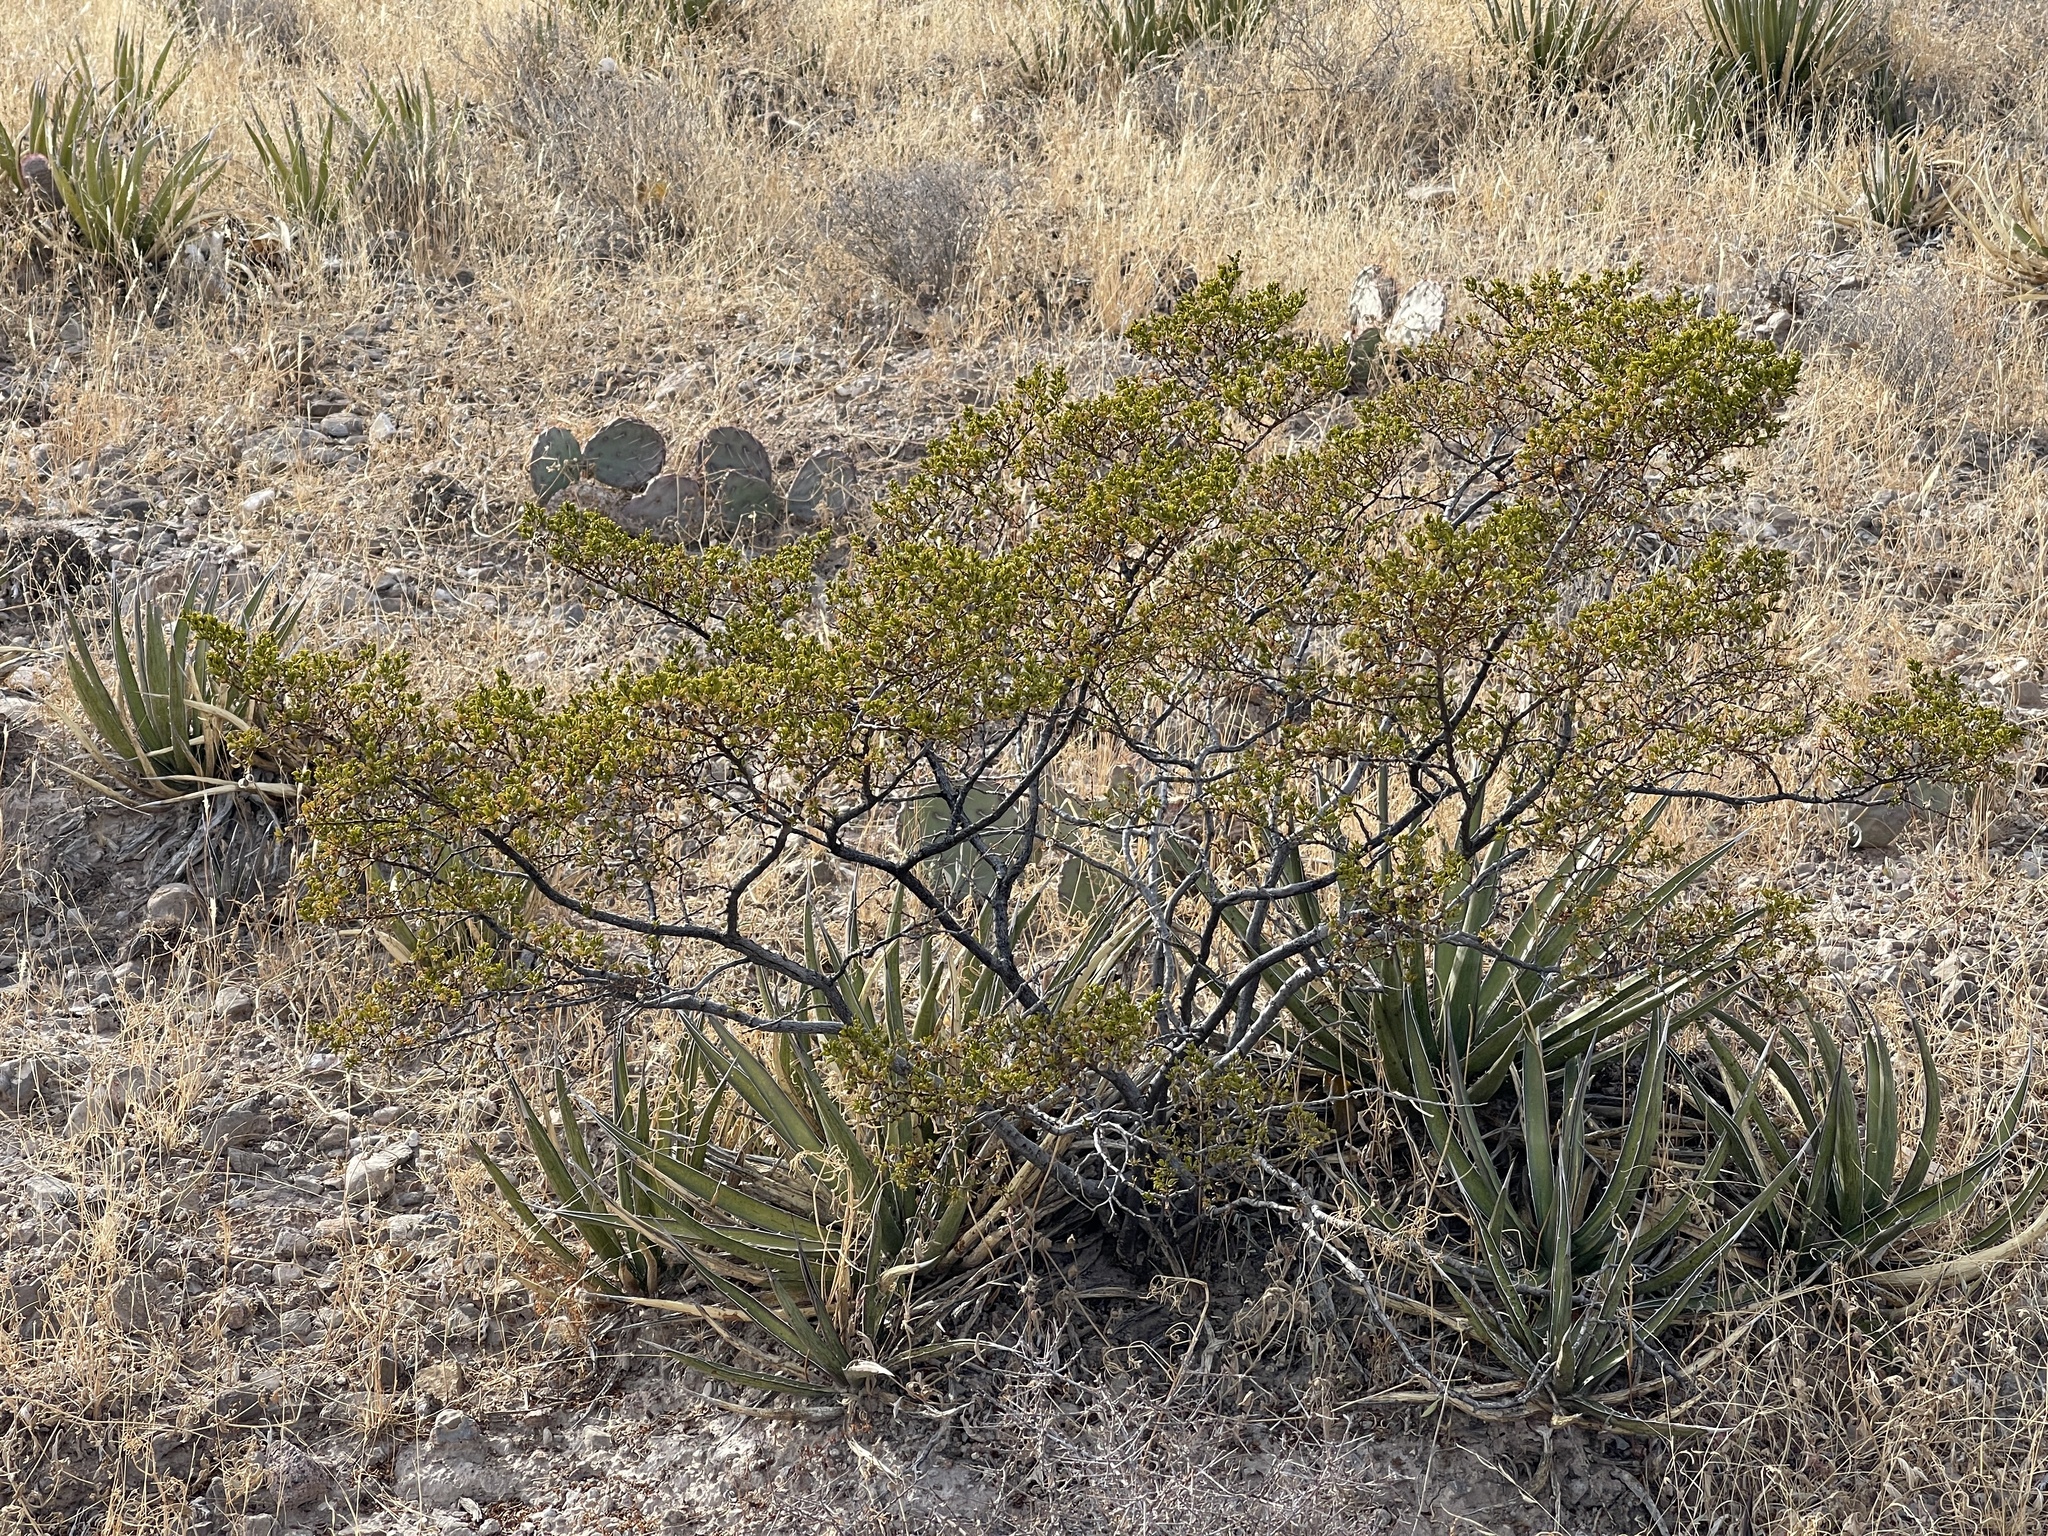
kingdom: Plantae
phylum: Tracheophyta
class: Magnoliopsida
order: Zygophyllales
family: Zygophyllaceae
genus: Larrea
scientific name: Larrea tridentata
